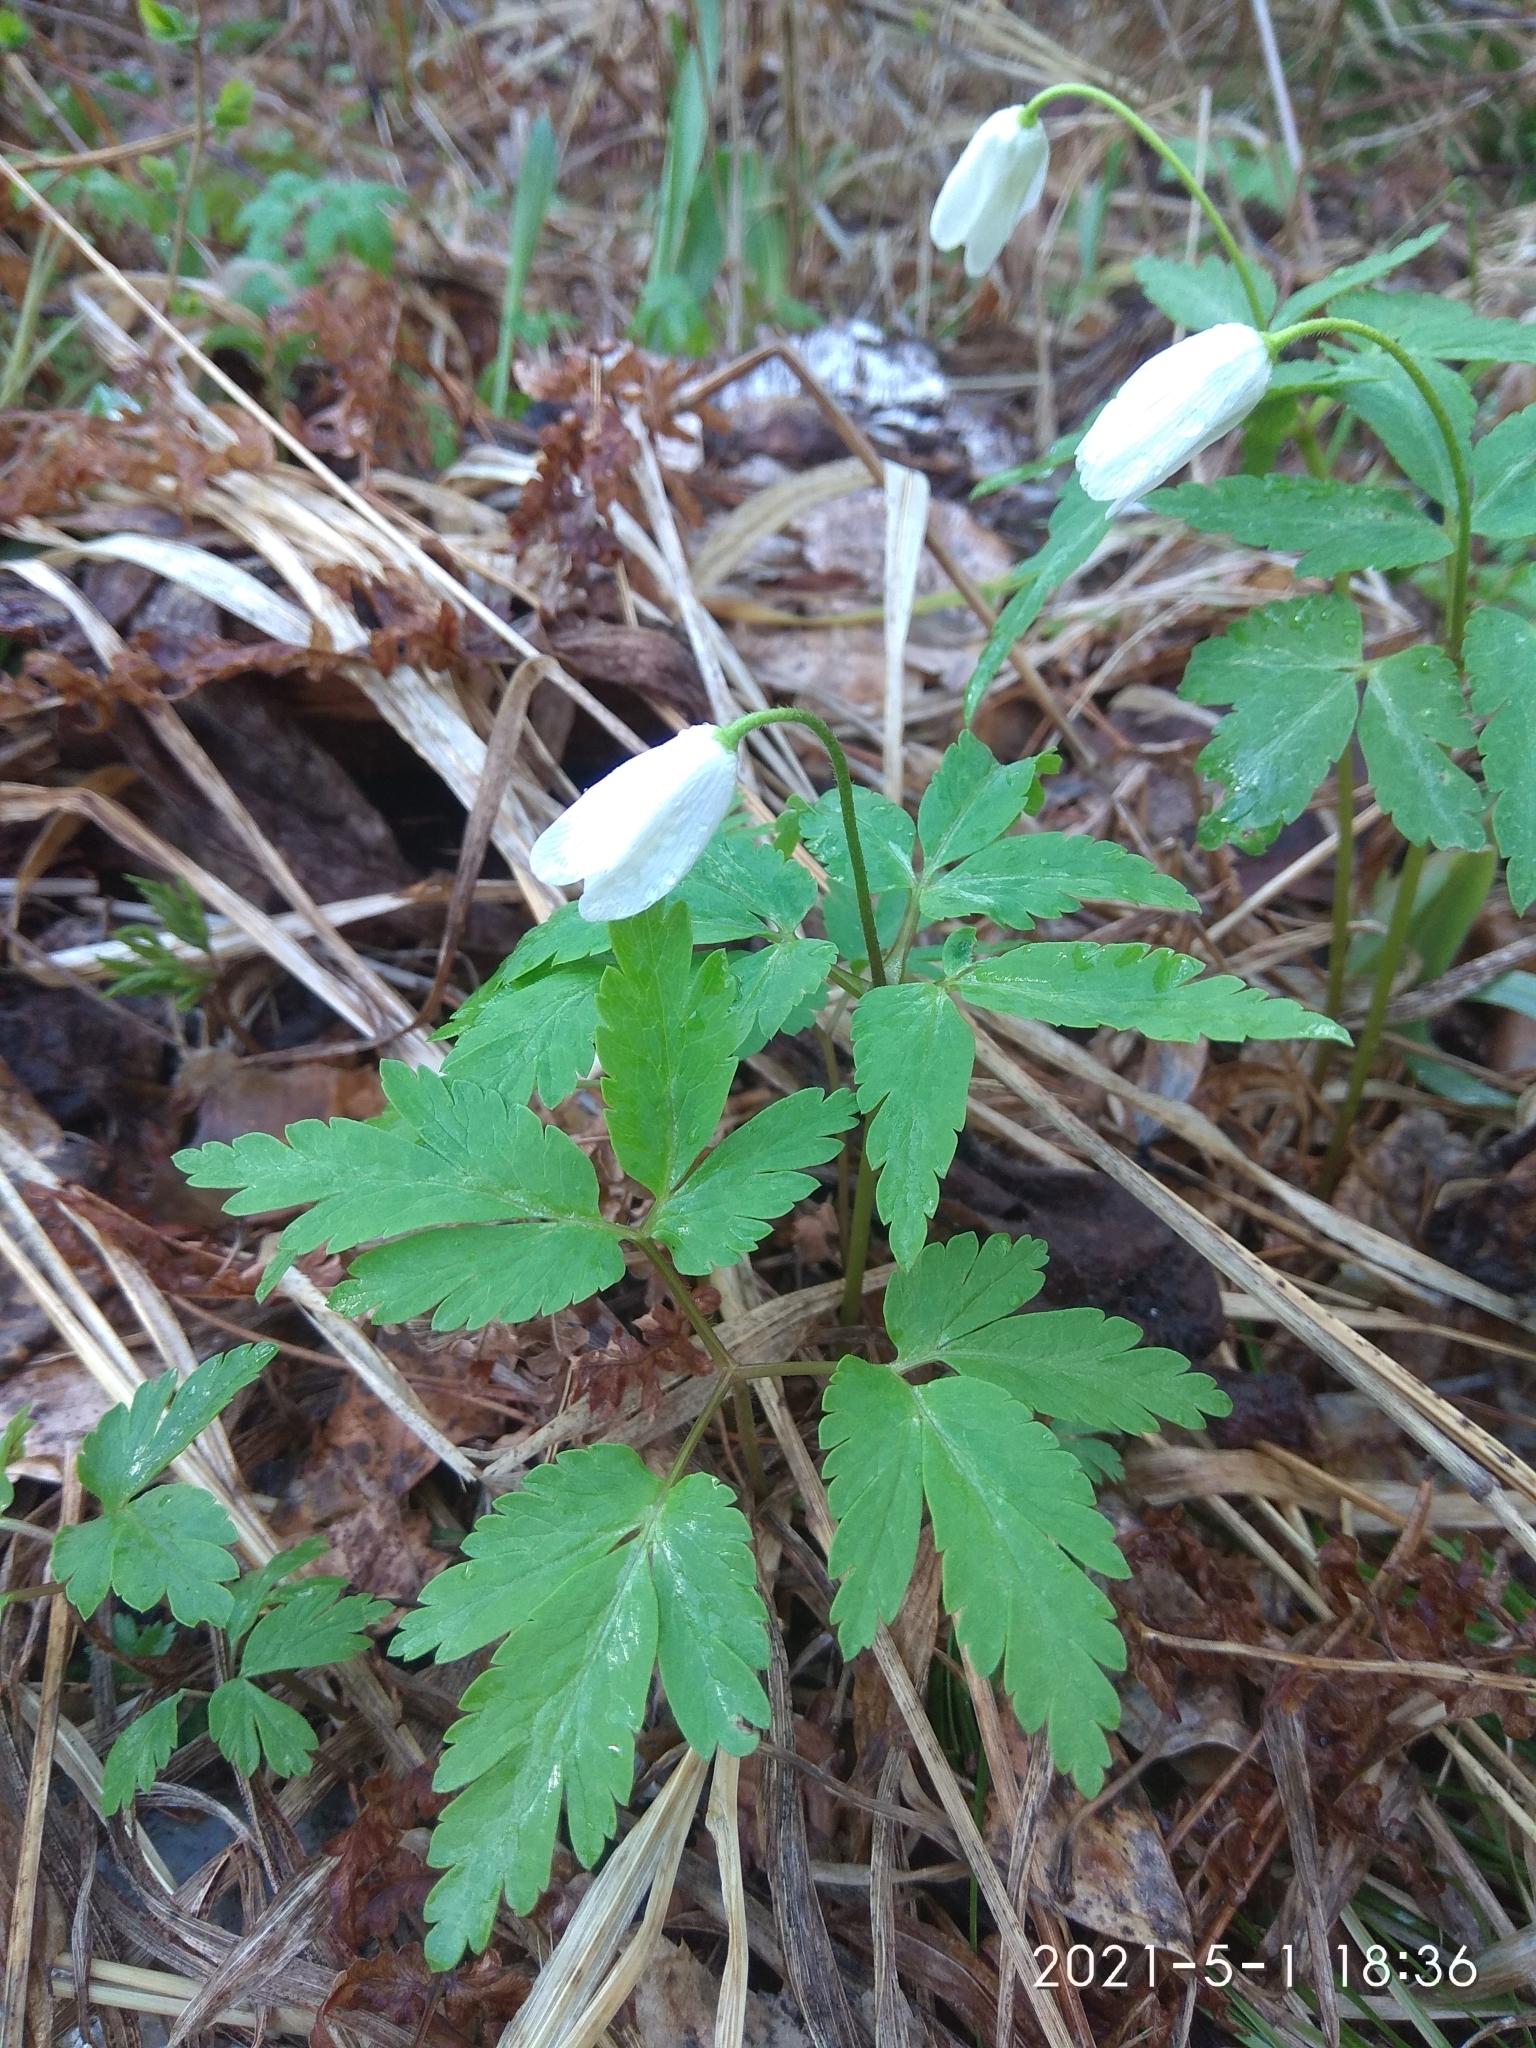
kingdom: Plantae
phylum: Tracheophyta
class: Magnoliopsida
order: Ranunculales
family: Ranunculaceae
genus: Anemone
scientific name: Anemone altaica
